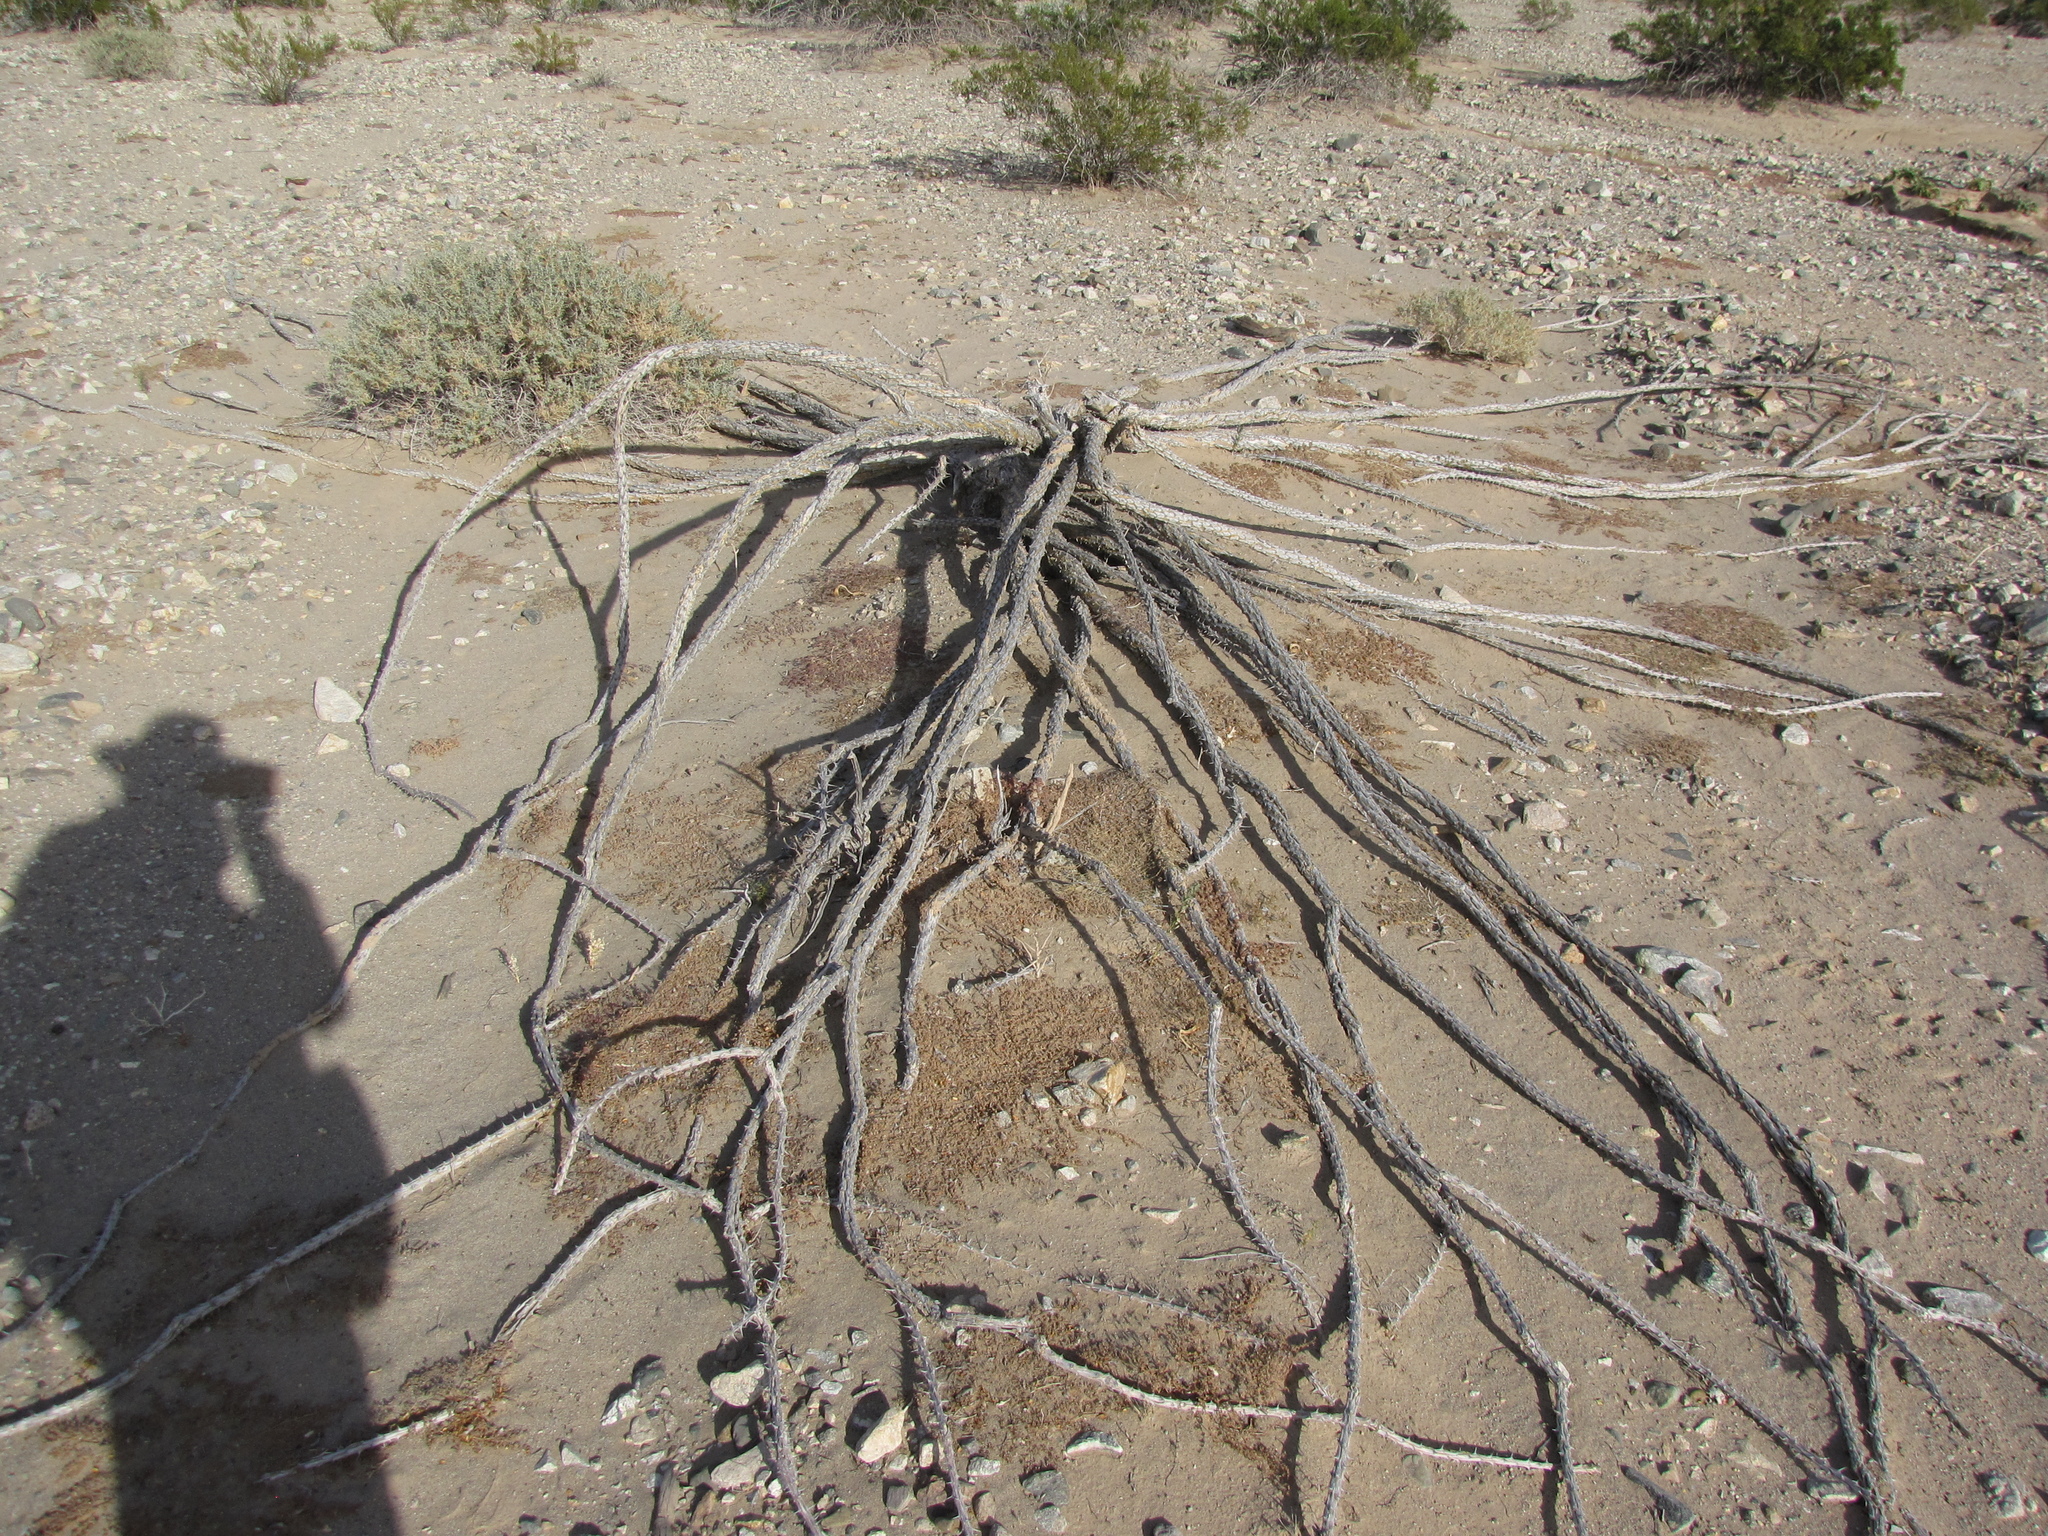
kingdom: Plantae
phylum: Tracheophyta
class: Magnoliopsida
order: Ericales
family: Fouquieriaceae
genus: Fouquieria
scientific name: Fouquieria splendens
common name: Vine-cactus
